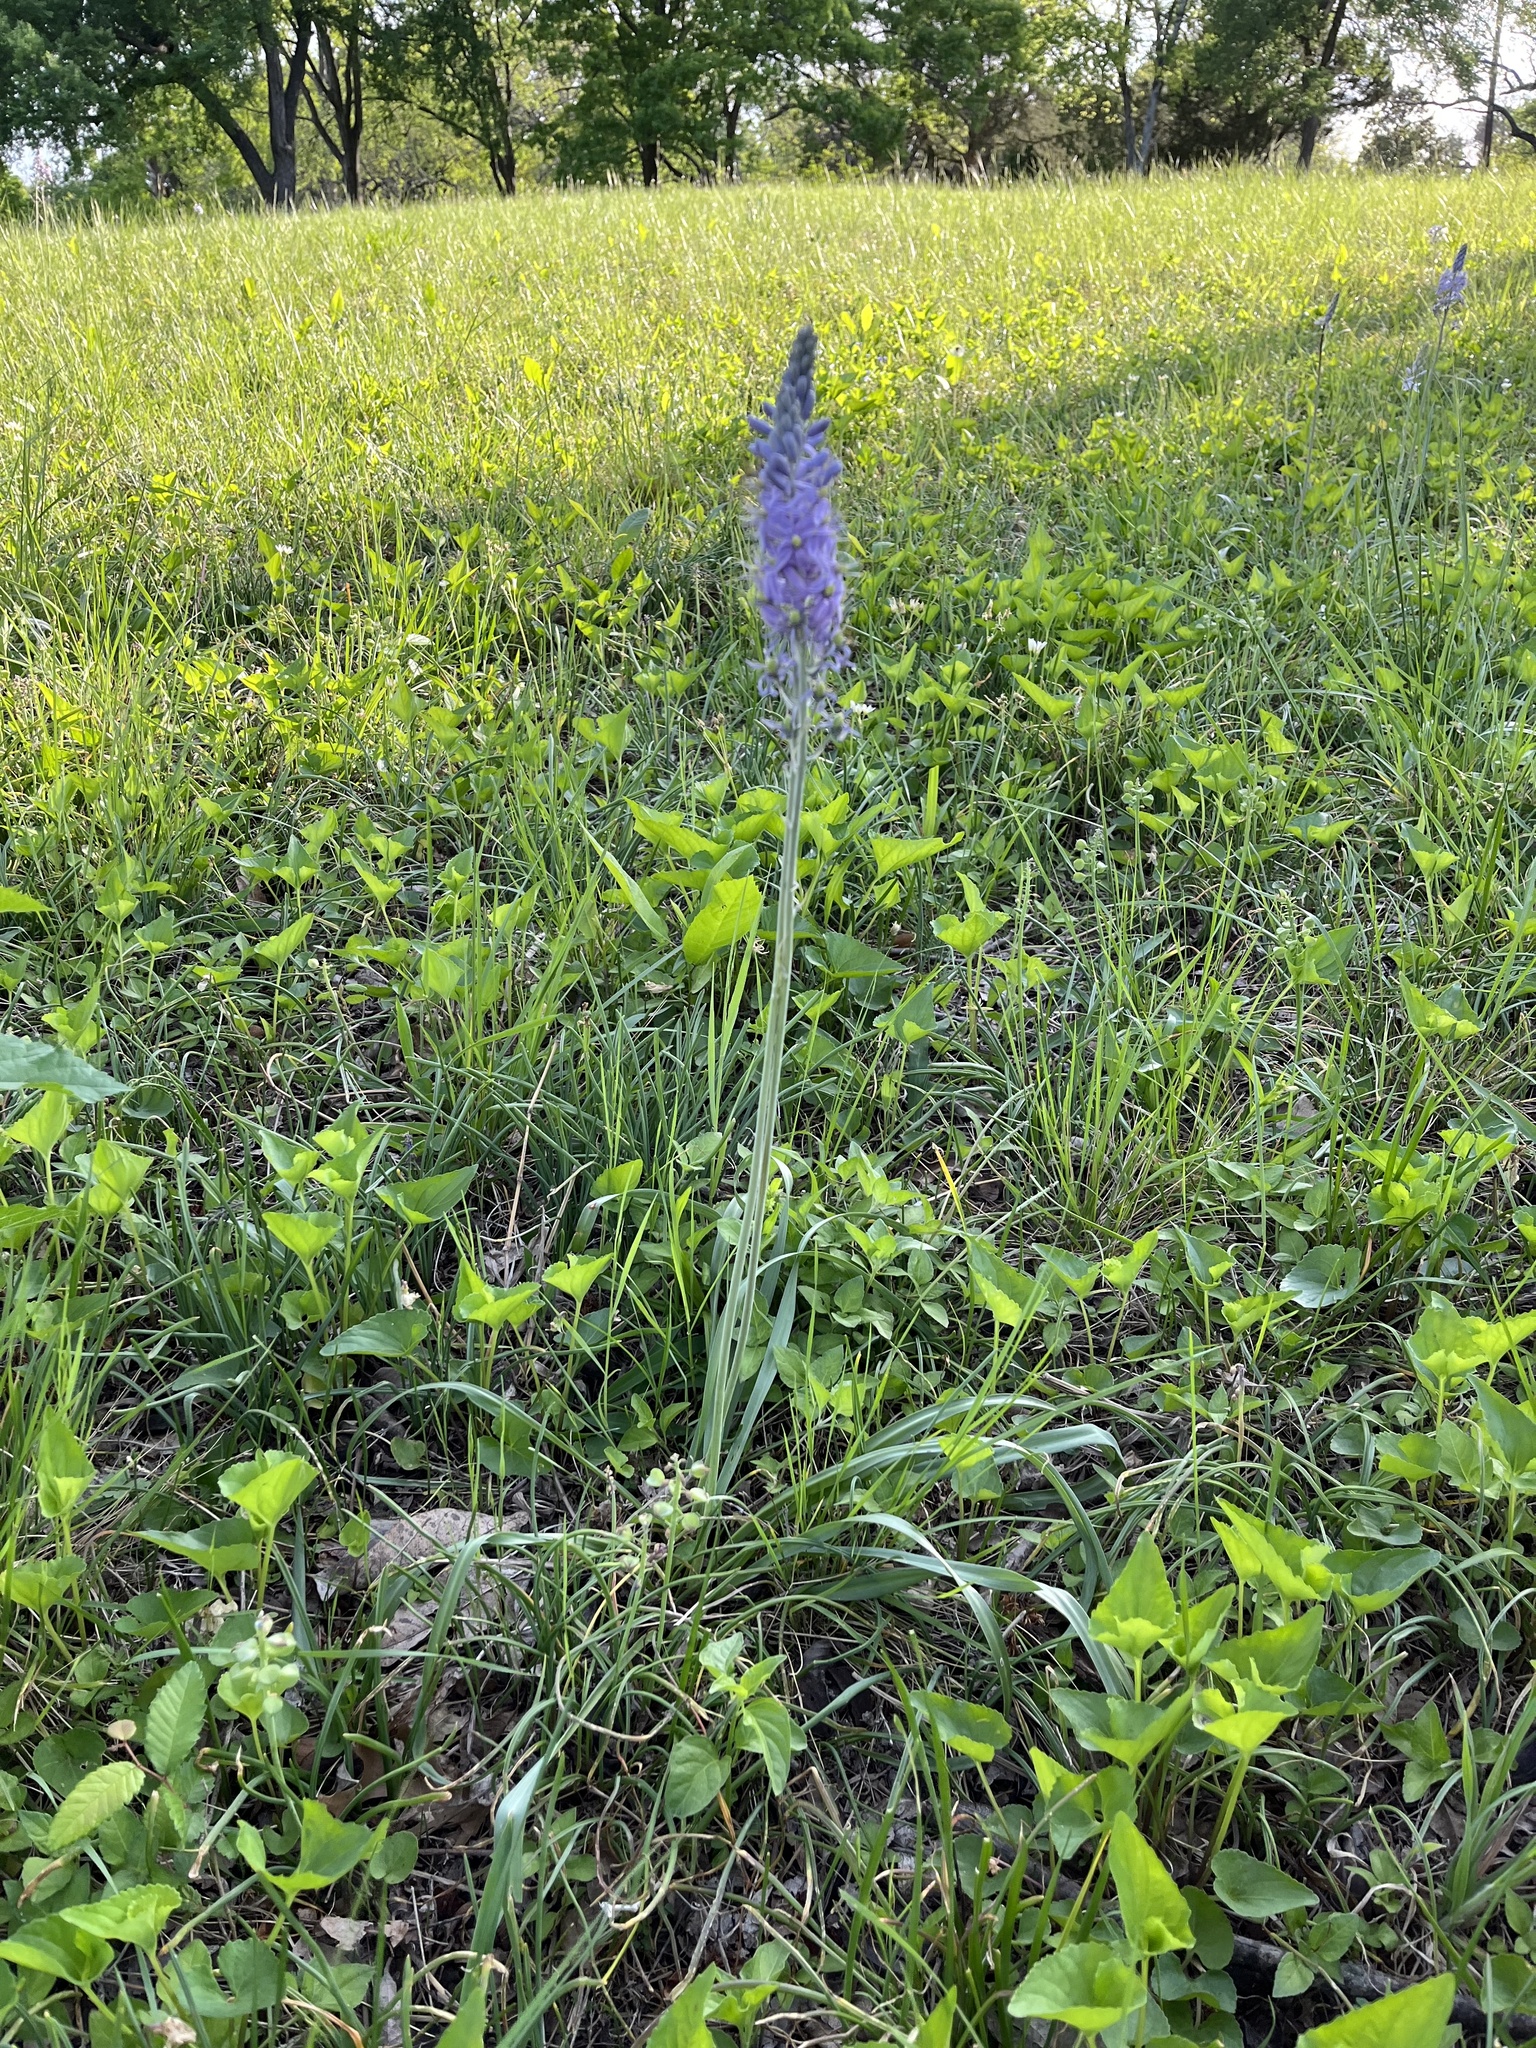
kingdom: Plantae
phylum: Tracheophyta
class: Liliopsida
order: Asparagales
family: Asparagaceae
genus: Camassia
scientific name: Camassia scilloides
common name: Wild hyacinth
